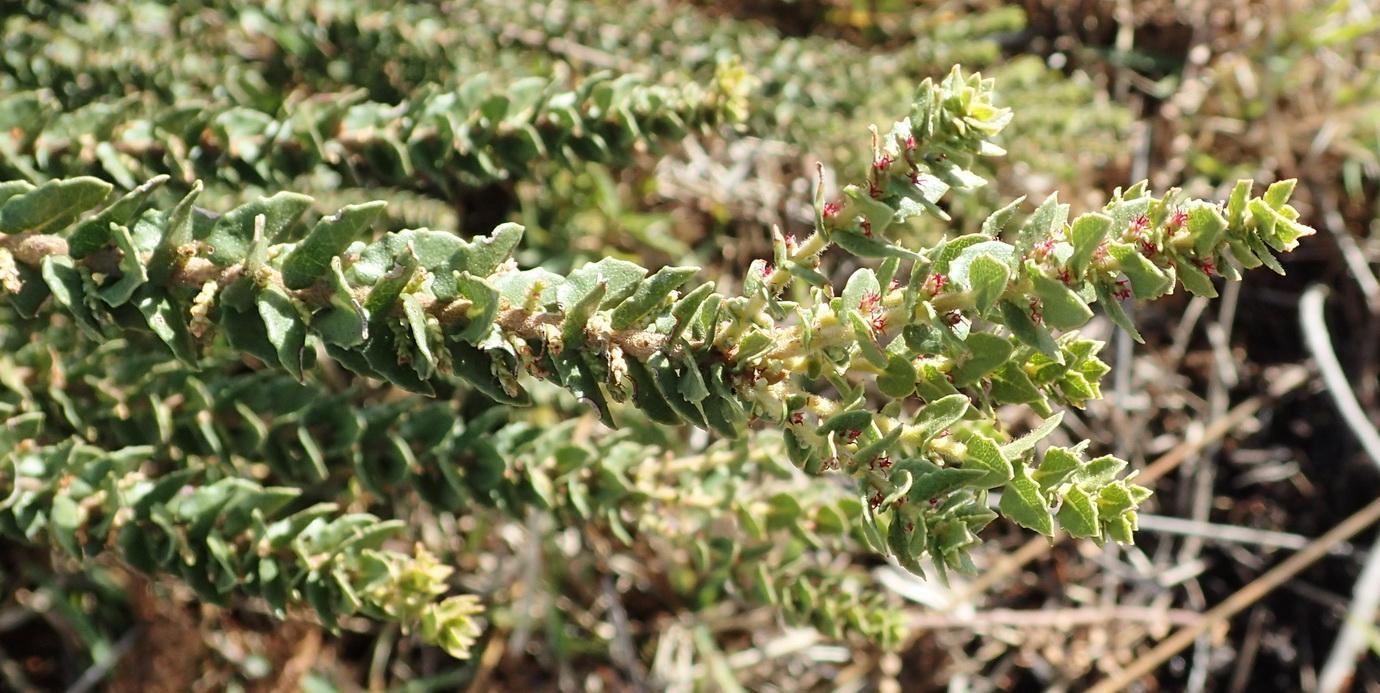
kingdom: Plantae
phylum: Tracheophyta
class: Magnoliopsida
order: Fagales
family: Myricaceae
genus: Morella
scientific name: Morella cordifolia
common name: Waxberry
